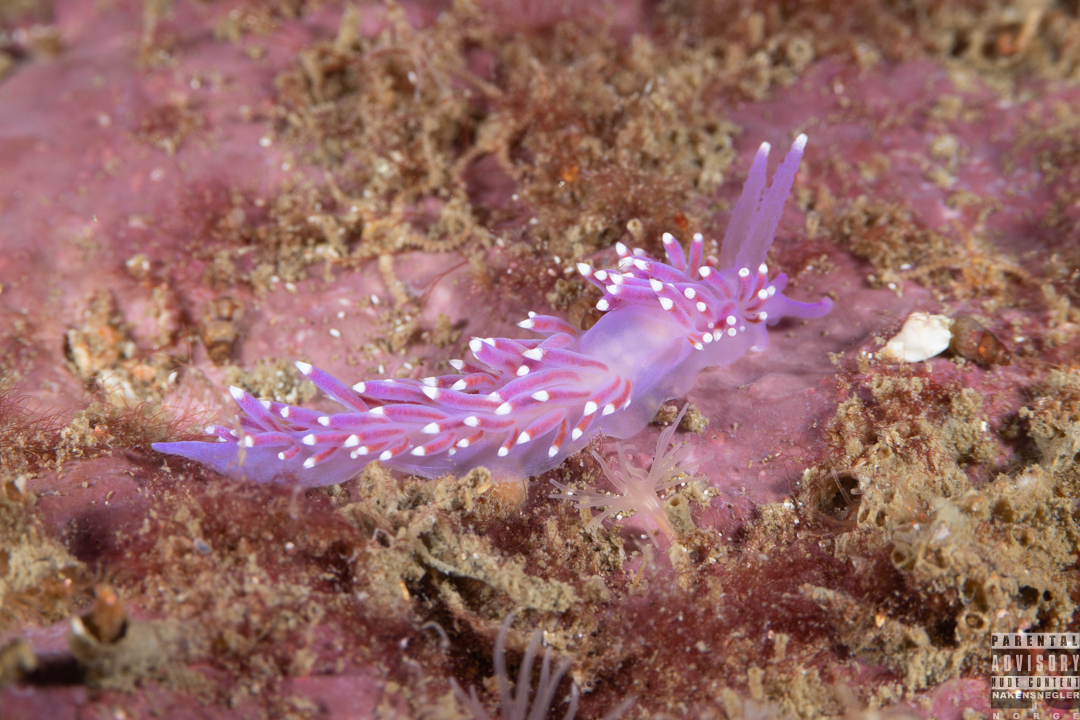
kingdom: Animalia
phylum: Mollusca
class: Gastropoda
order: Nudibranchia
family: Flabellinidae
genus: Edmundsella
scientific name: Edmundsella pedata
